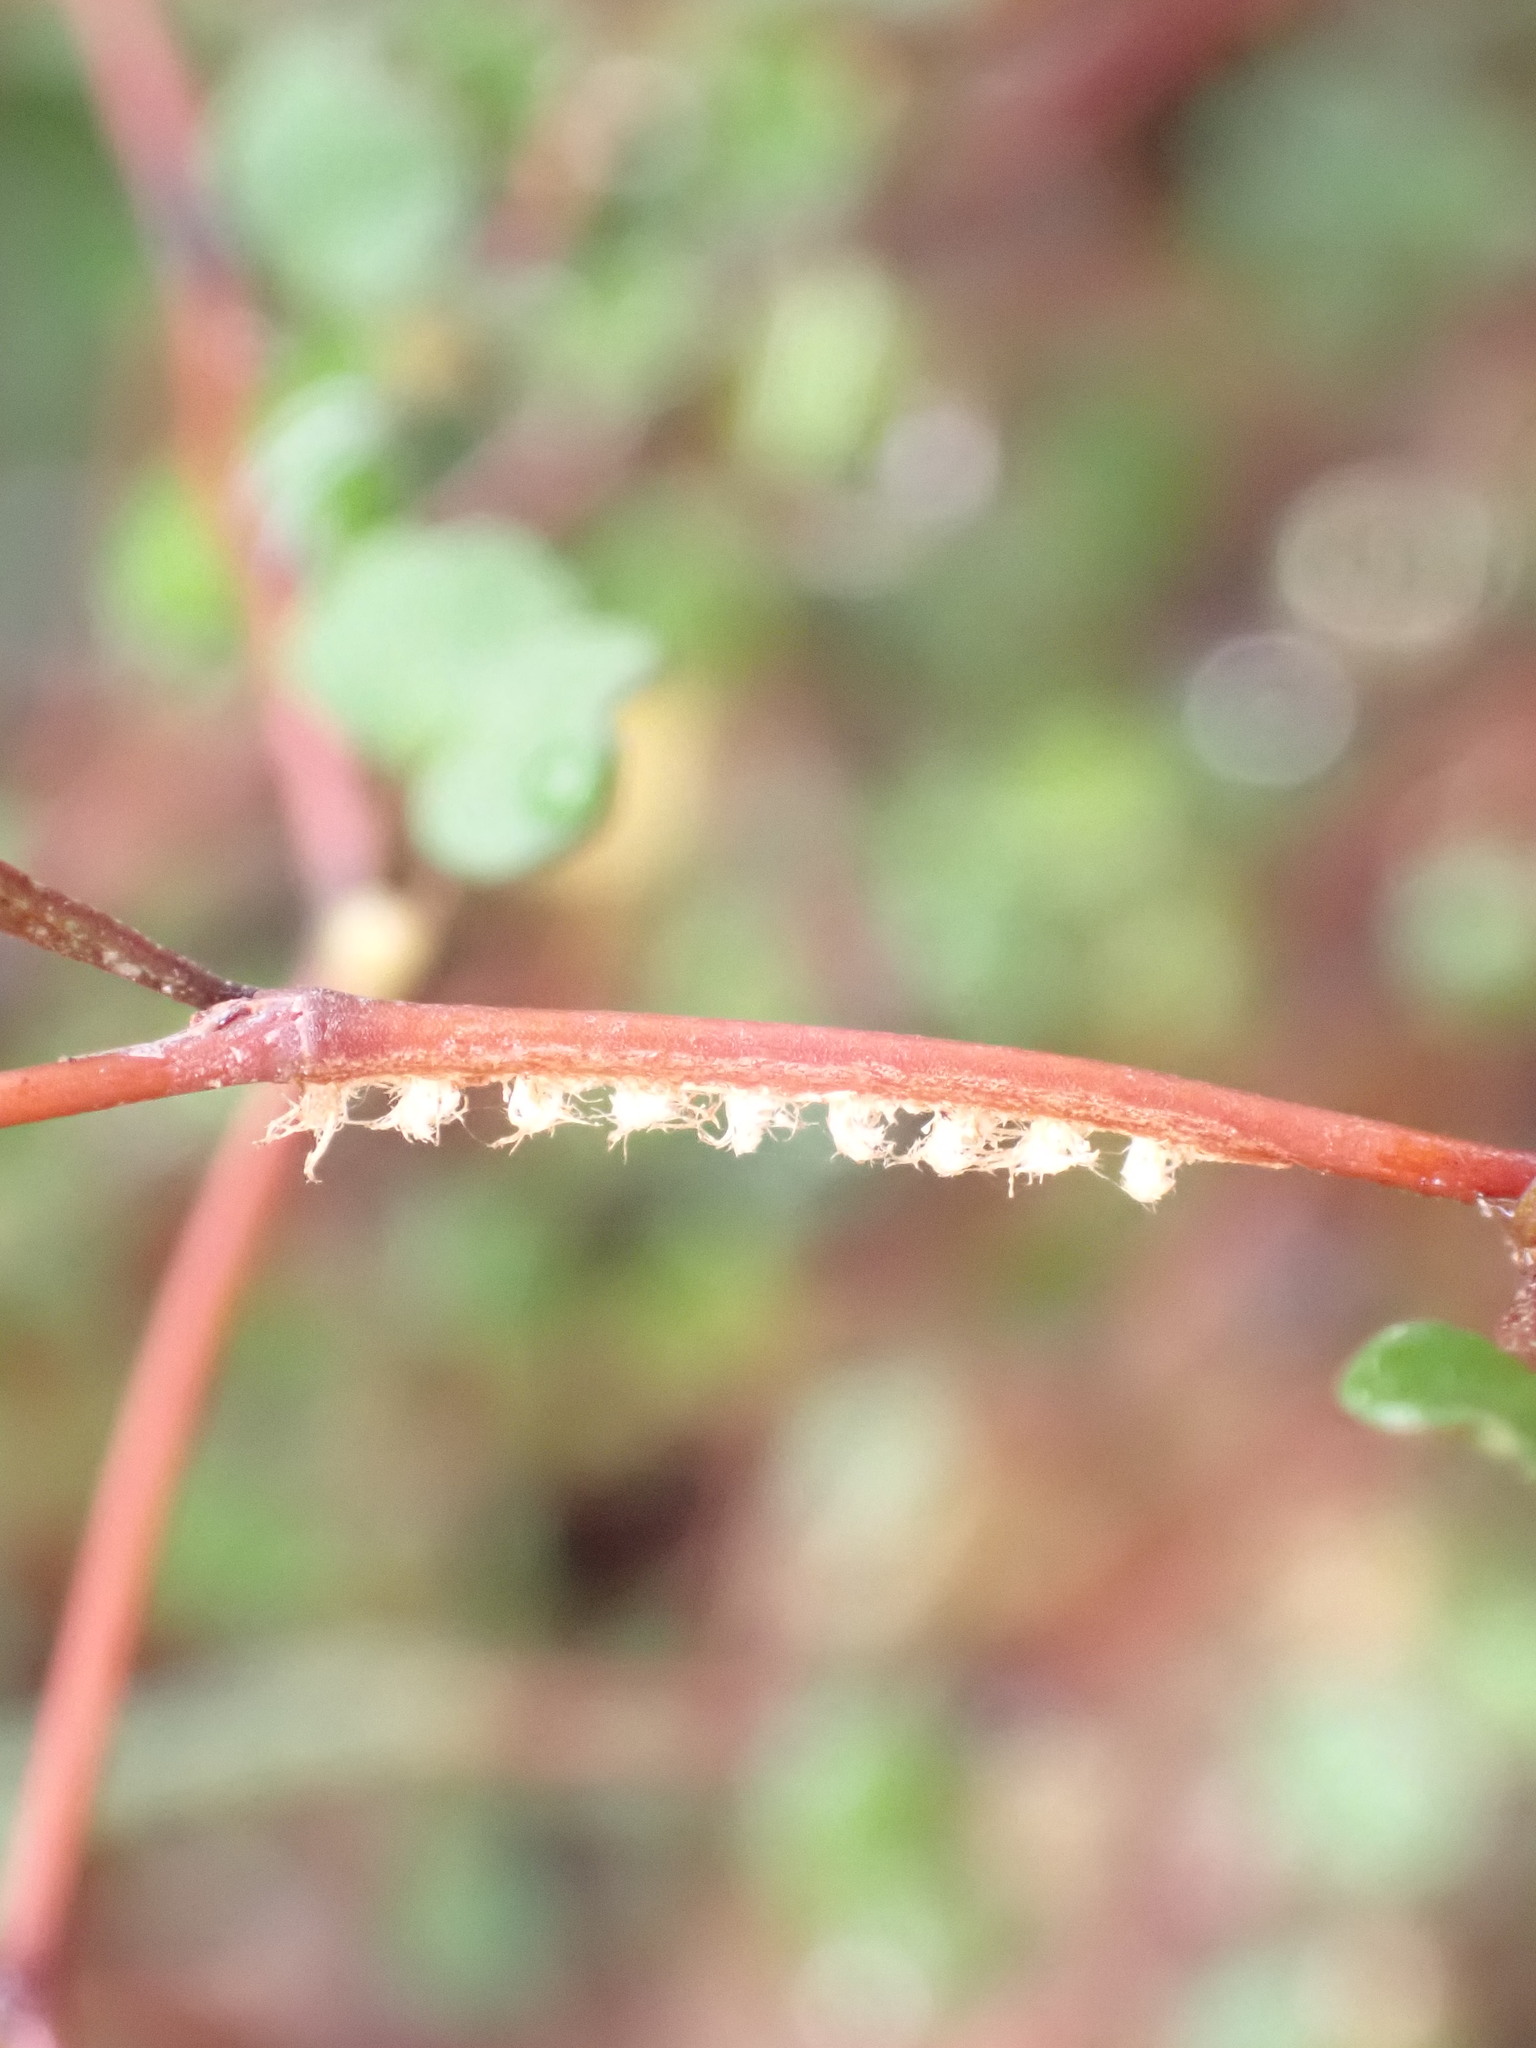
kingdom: Animalia
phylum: Arthropoda
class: Insecta
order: Hemiptera
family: Ricaniidae
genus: Scolypopa
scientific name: Scolypopa australis
